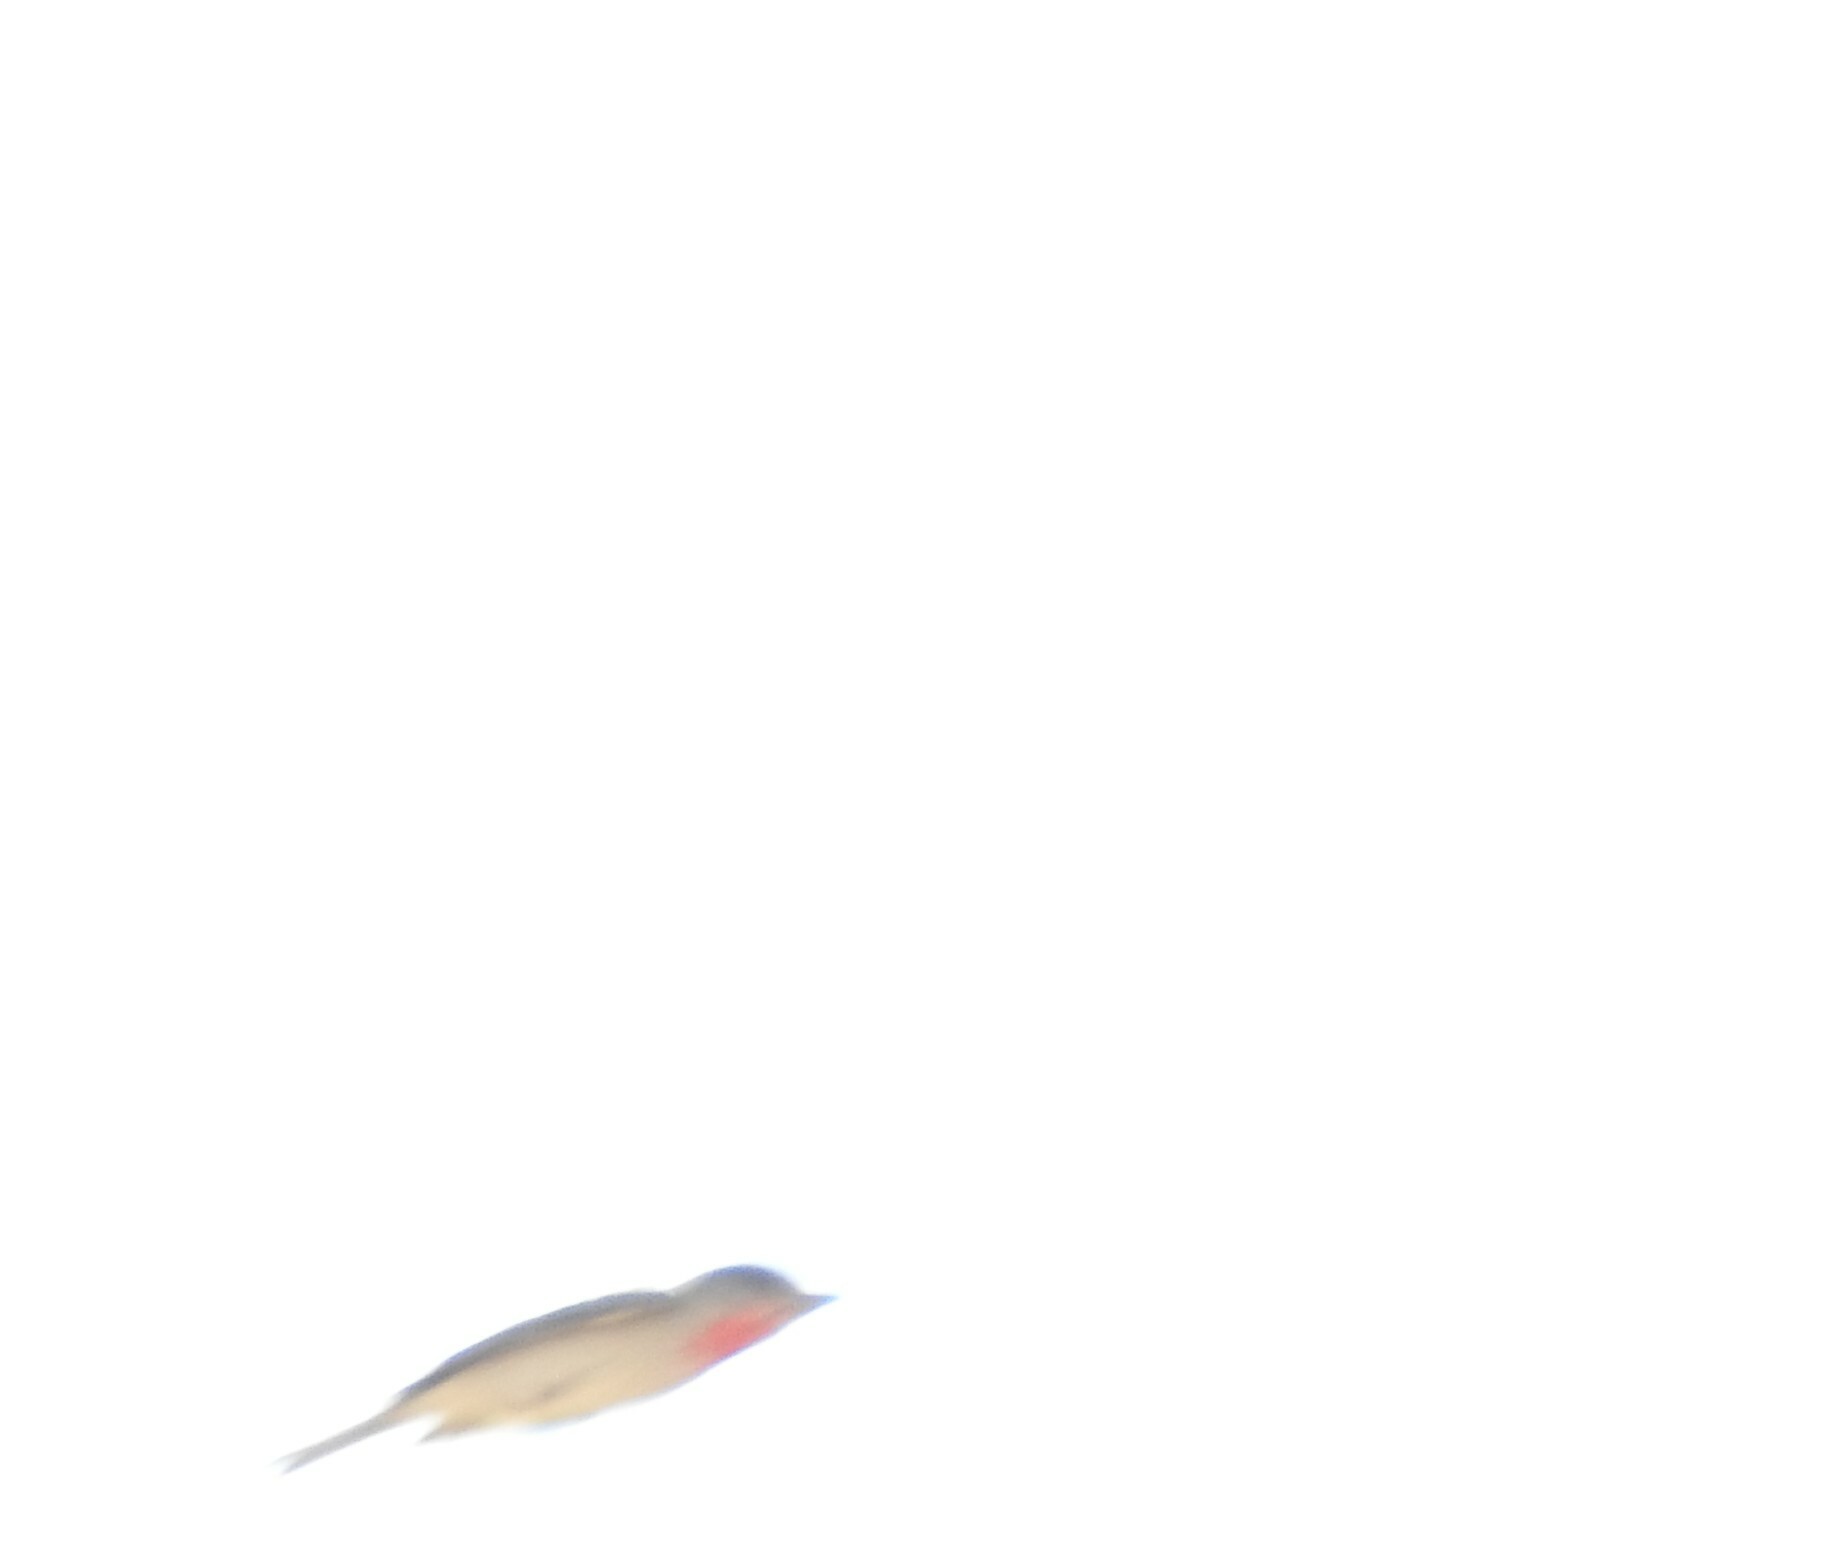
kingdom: Animalia
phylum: Chordata
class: Aves
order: Passeriformes
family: Cotingidae
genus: Pachyramphus
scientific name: Pachyramphus aglaiae
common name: Rose-throated becard
